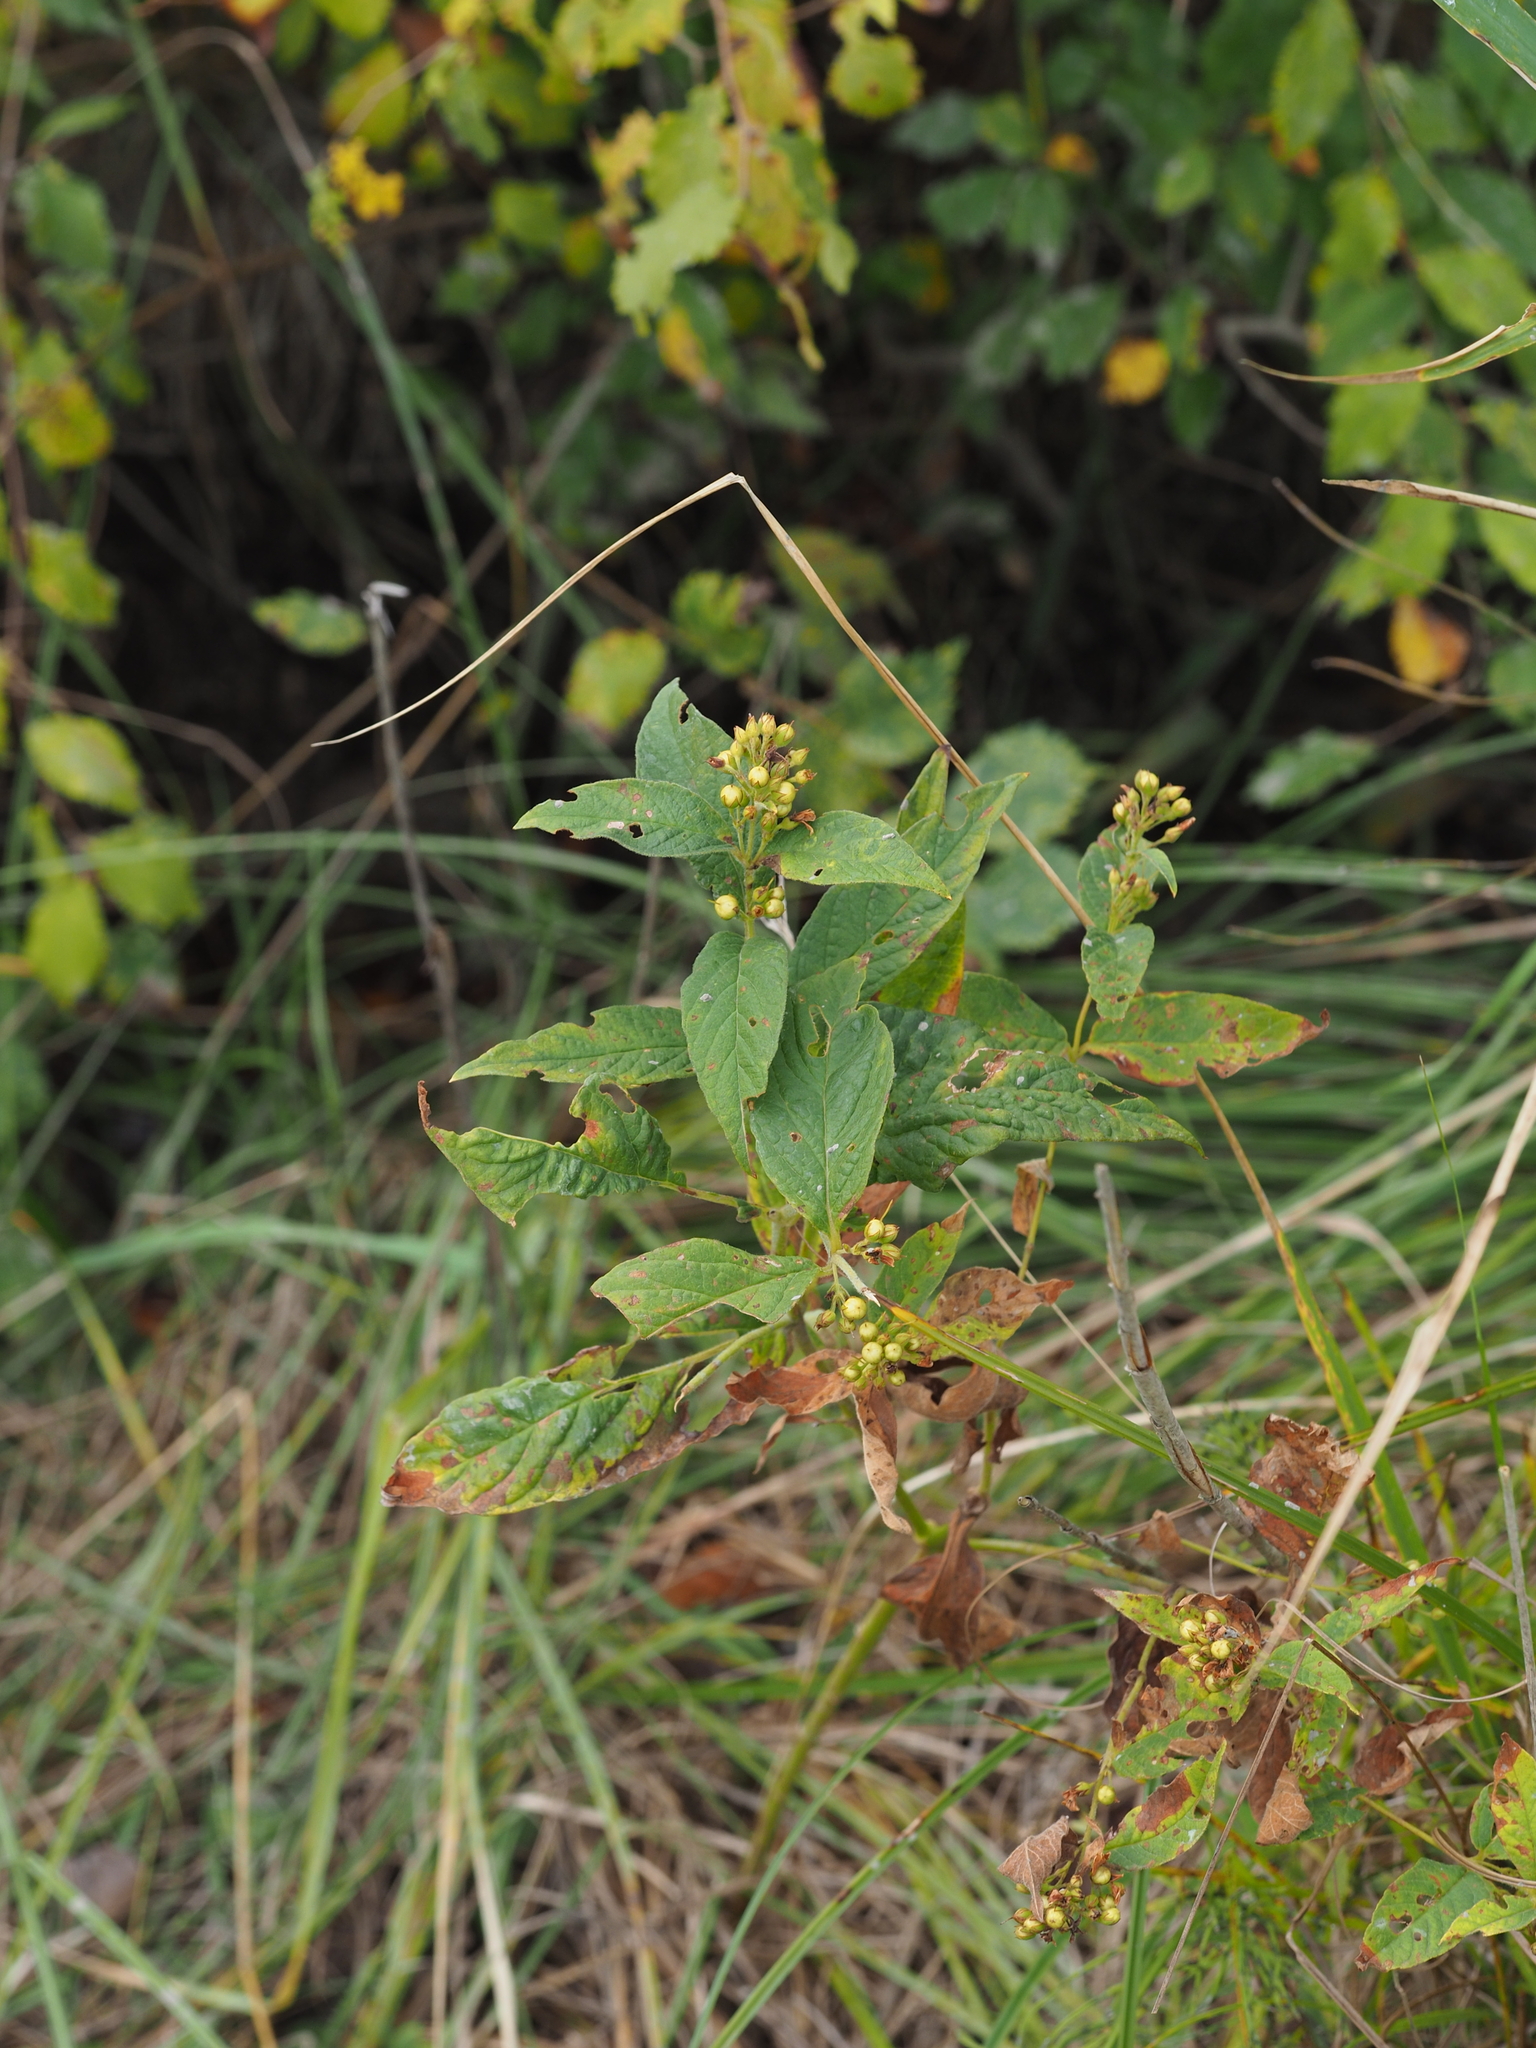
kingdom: Plantae
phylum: Tracheophyta
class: Magnoliopsida
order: Ericales
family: Primulaceae
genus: Lysimachia
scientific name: Lysimachia vulgaris
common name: Yellow loosestrife
